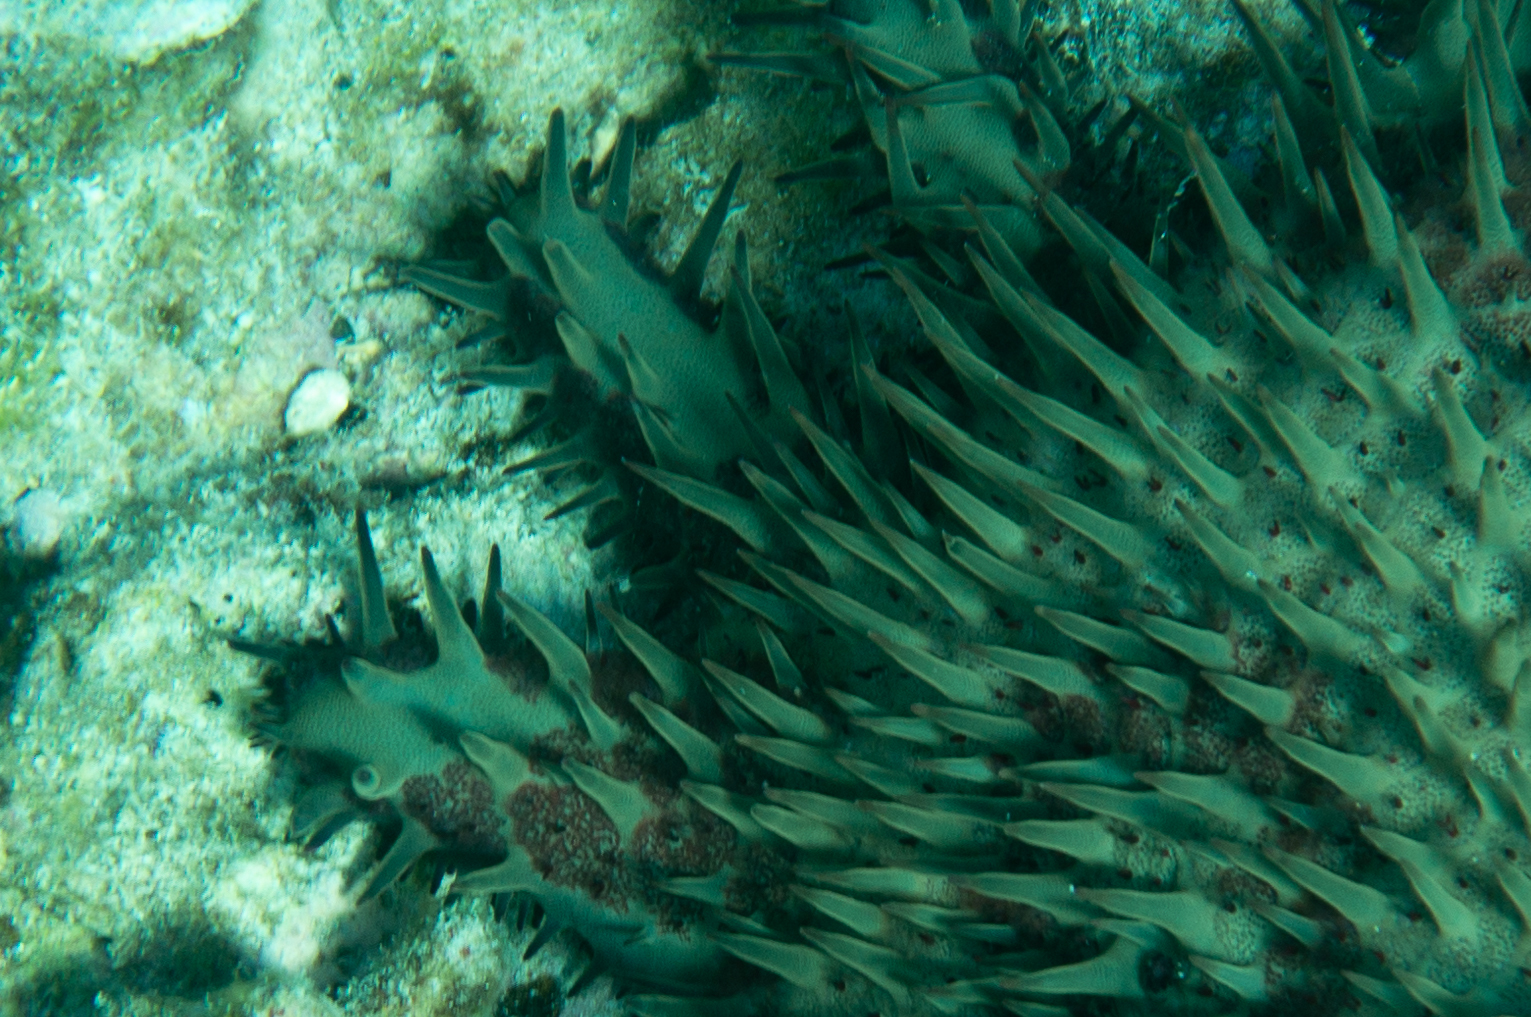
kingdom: Animalia
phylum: Echinodermata
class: Asteroidea
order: Valvatida
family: Acanthasteridae
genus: Acanthaster
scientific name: Acanthaster planci
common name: Crown-of-thorns
